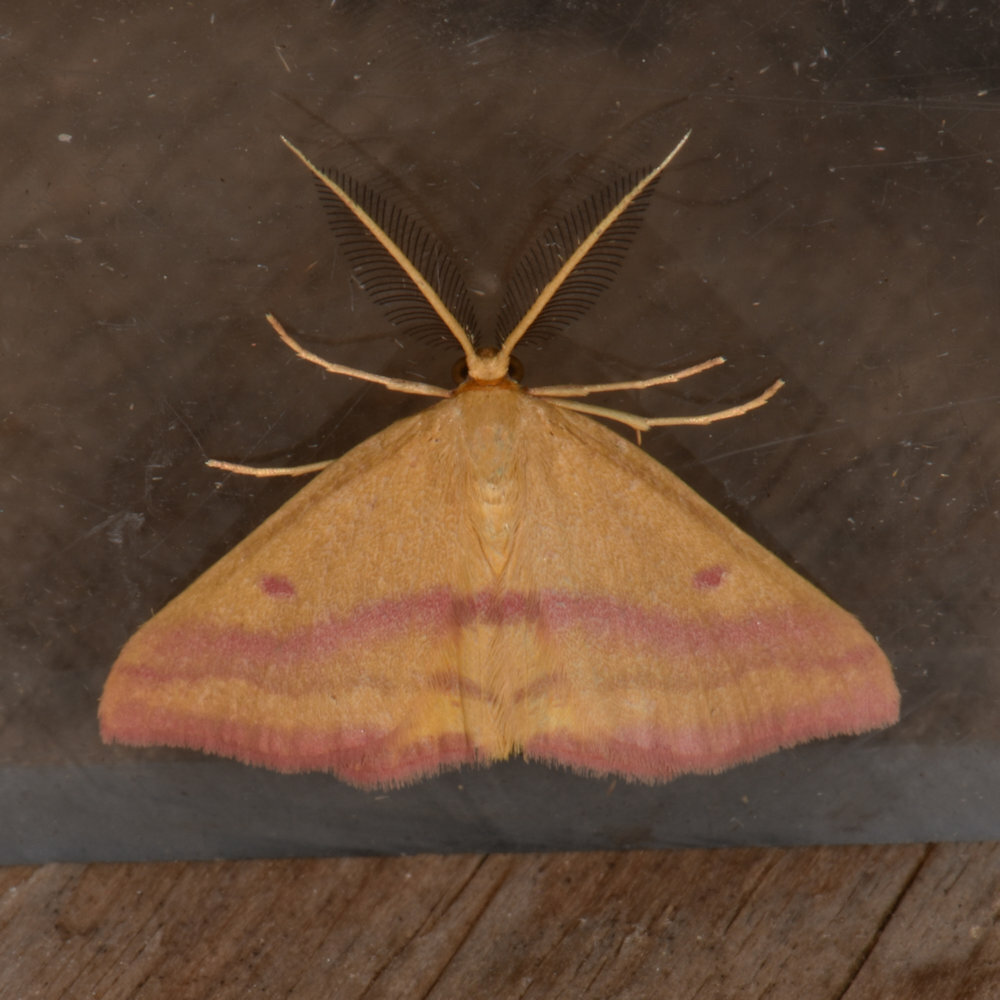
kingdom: Animalia
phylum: Arthropoda
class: Insecta
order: Lepidoptera
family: Geometridae
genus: Haematopis
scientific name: Haematopis grataria
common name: Chickweed geometer
